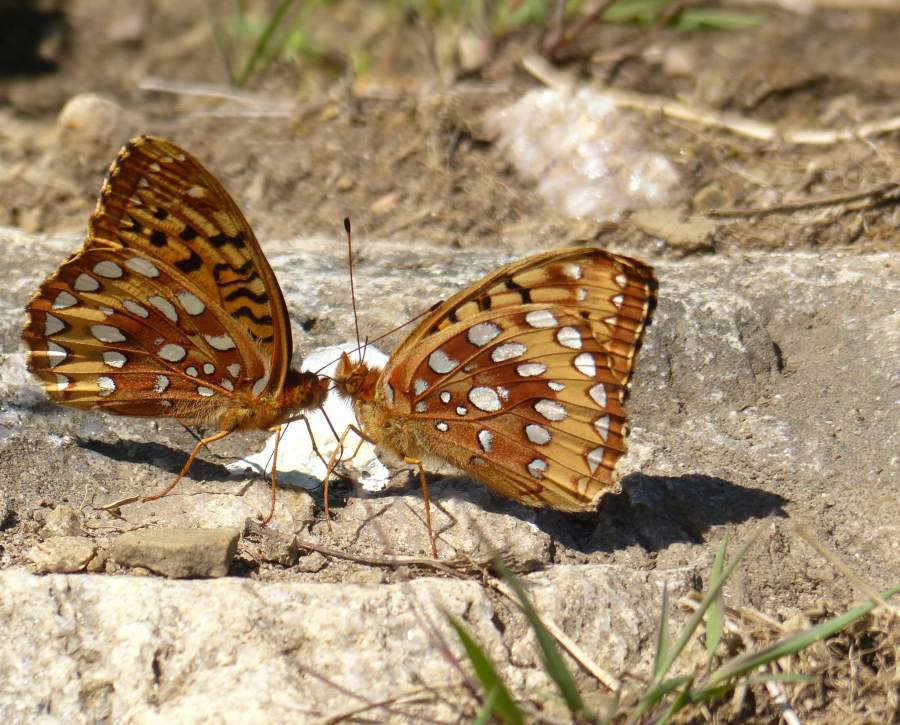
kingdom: Animalia
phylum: Arthropoda
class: Insecta
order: Lepidoptera
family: Nymphalidae
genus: Speyeria
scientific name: Speyeria cybele
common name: Great spangled fritillary
